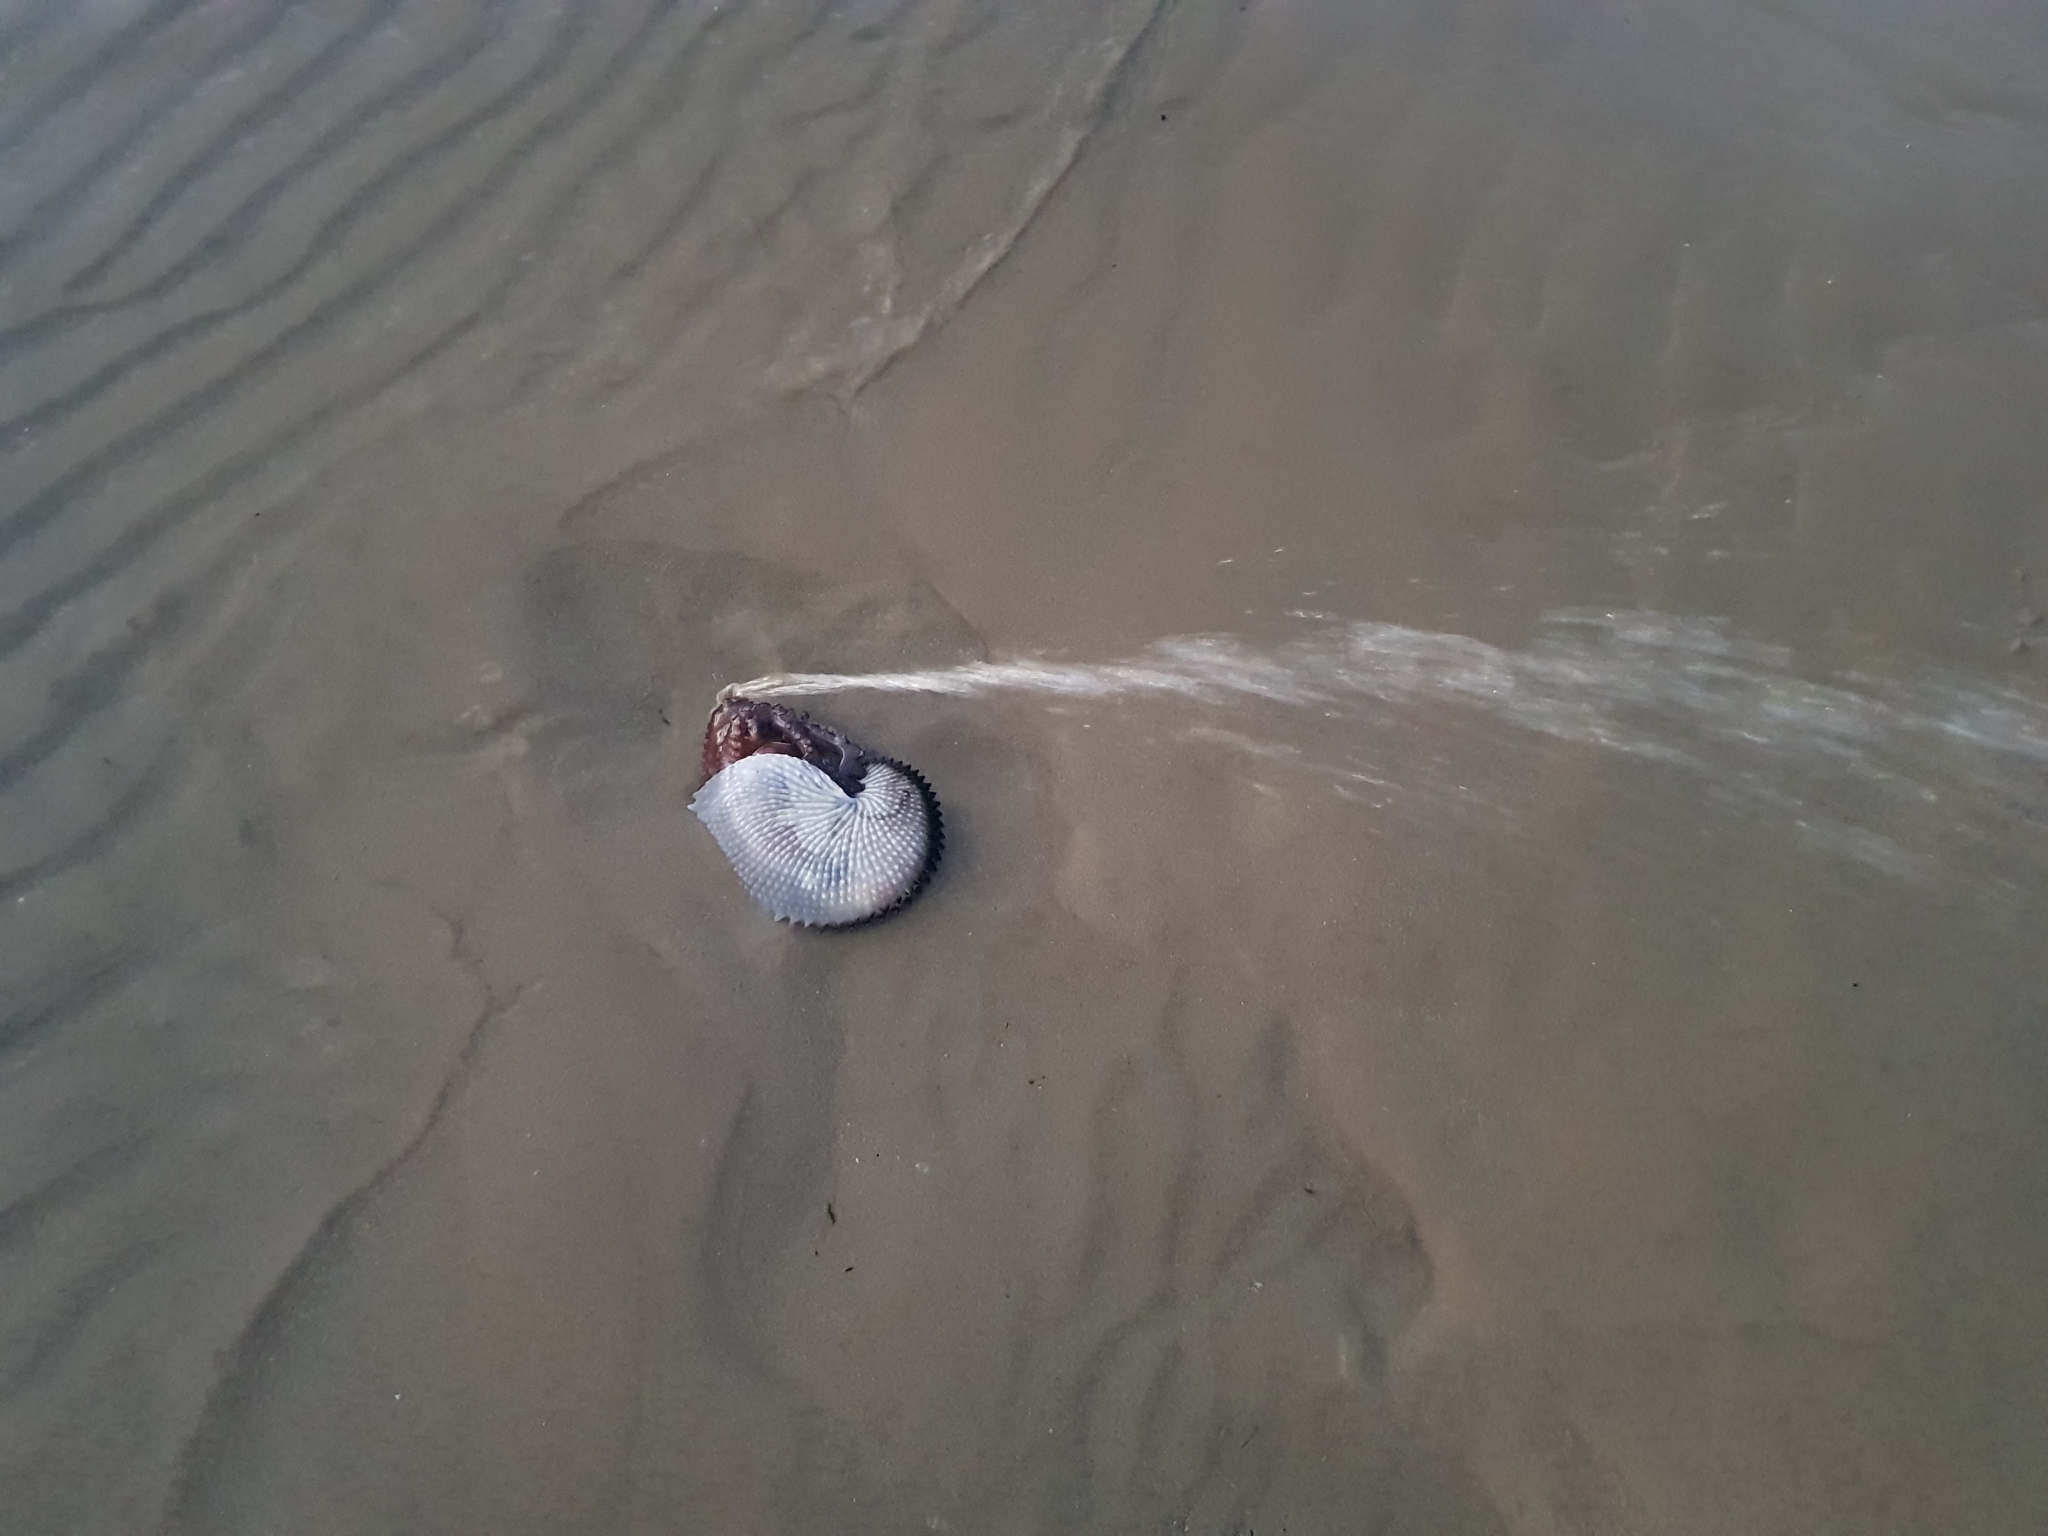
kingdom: Animalia
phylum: Mollusca
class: Cephalopoda
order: Octopoda
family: Argonautidae
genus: Argonauta
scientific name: Argonauta nodosus
